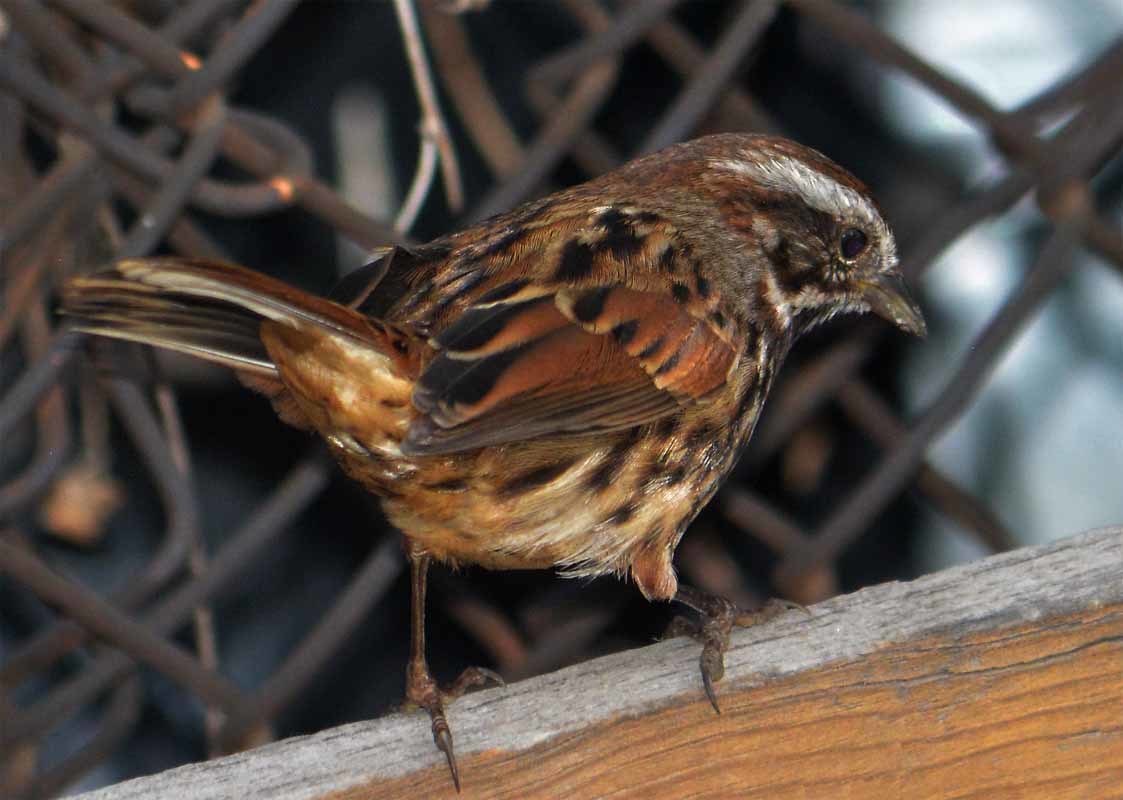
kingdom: Animalia
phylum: Chordata
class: Aves
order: Passeriformes
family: Passerellidae
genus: Melospiza
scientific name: Melospiza melodia
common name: Song sparrow
